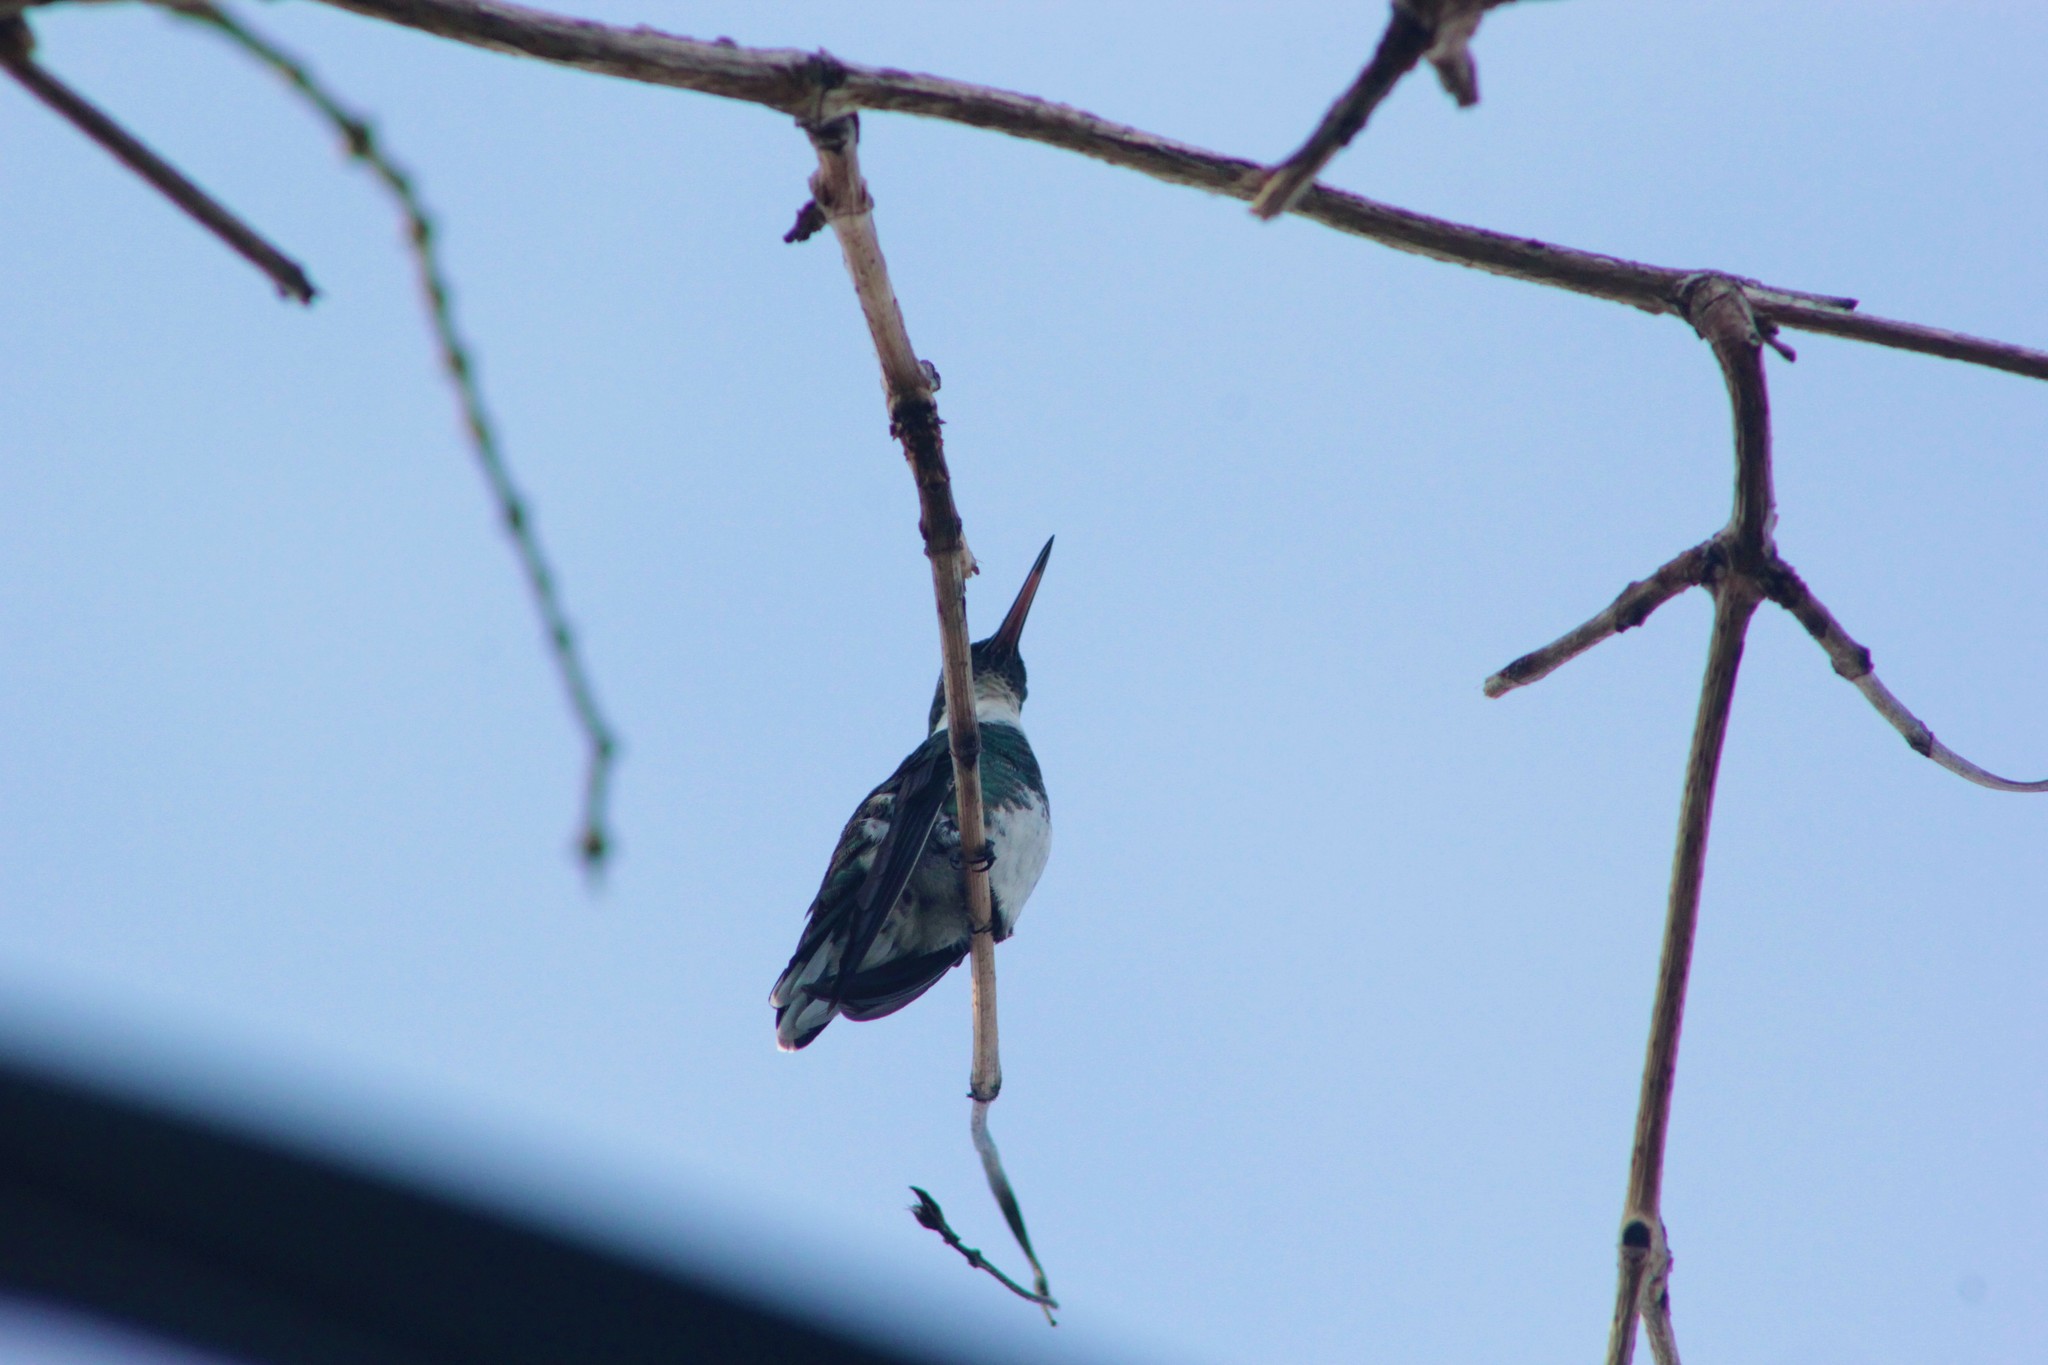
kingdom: Animalia
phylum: Chordata
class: Aves
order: Apodiformes
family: Trochilidae
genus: Leucochloris
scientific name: Leucochloris albicollis
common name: White-throated hummingbird
